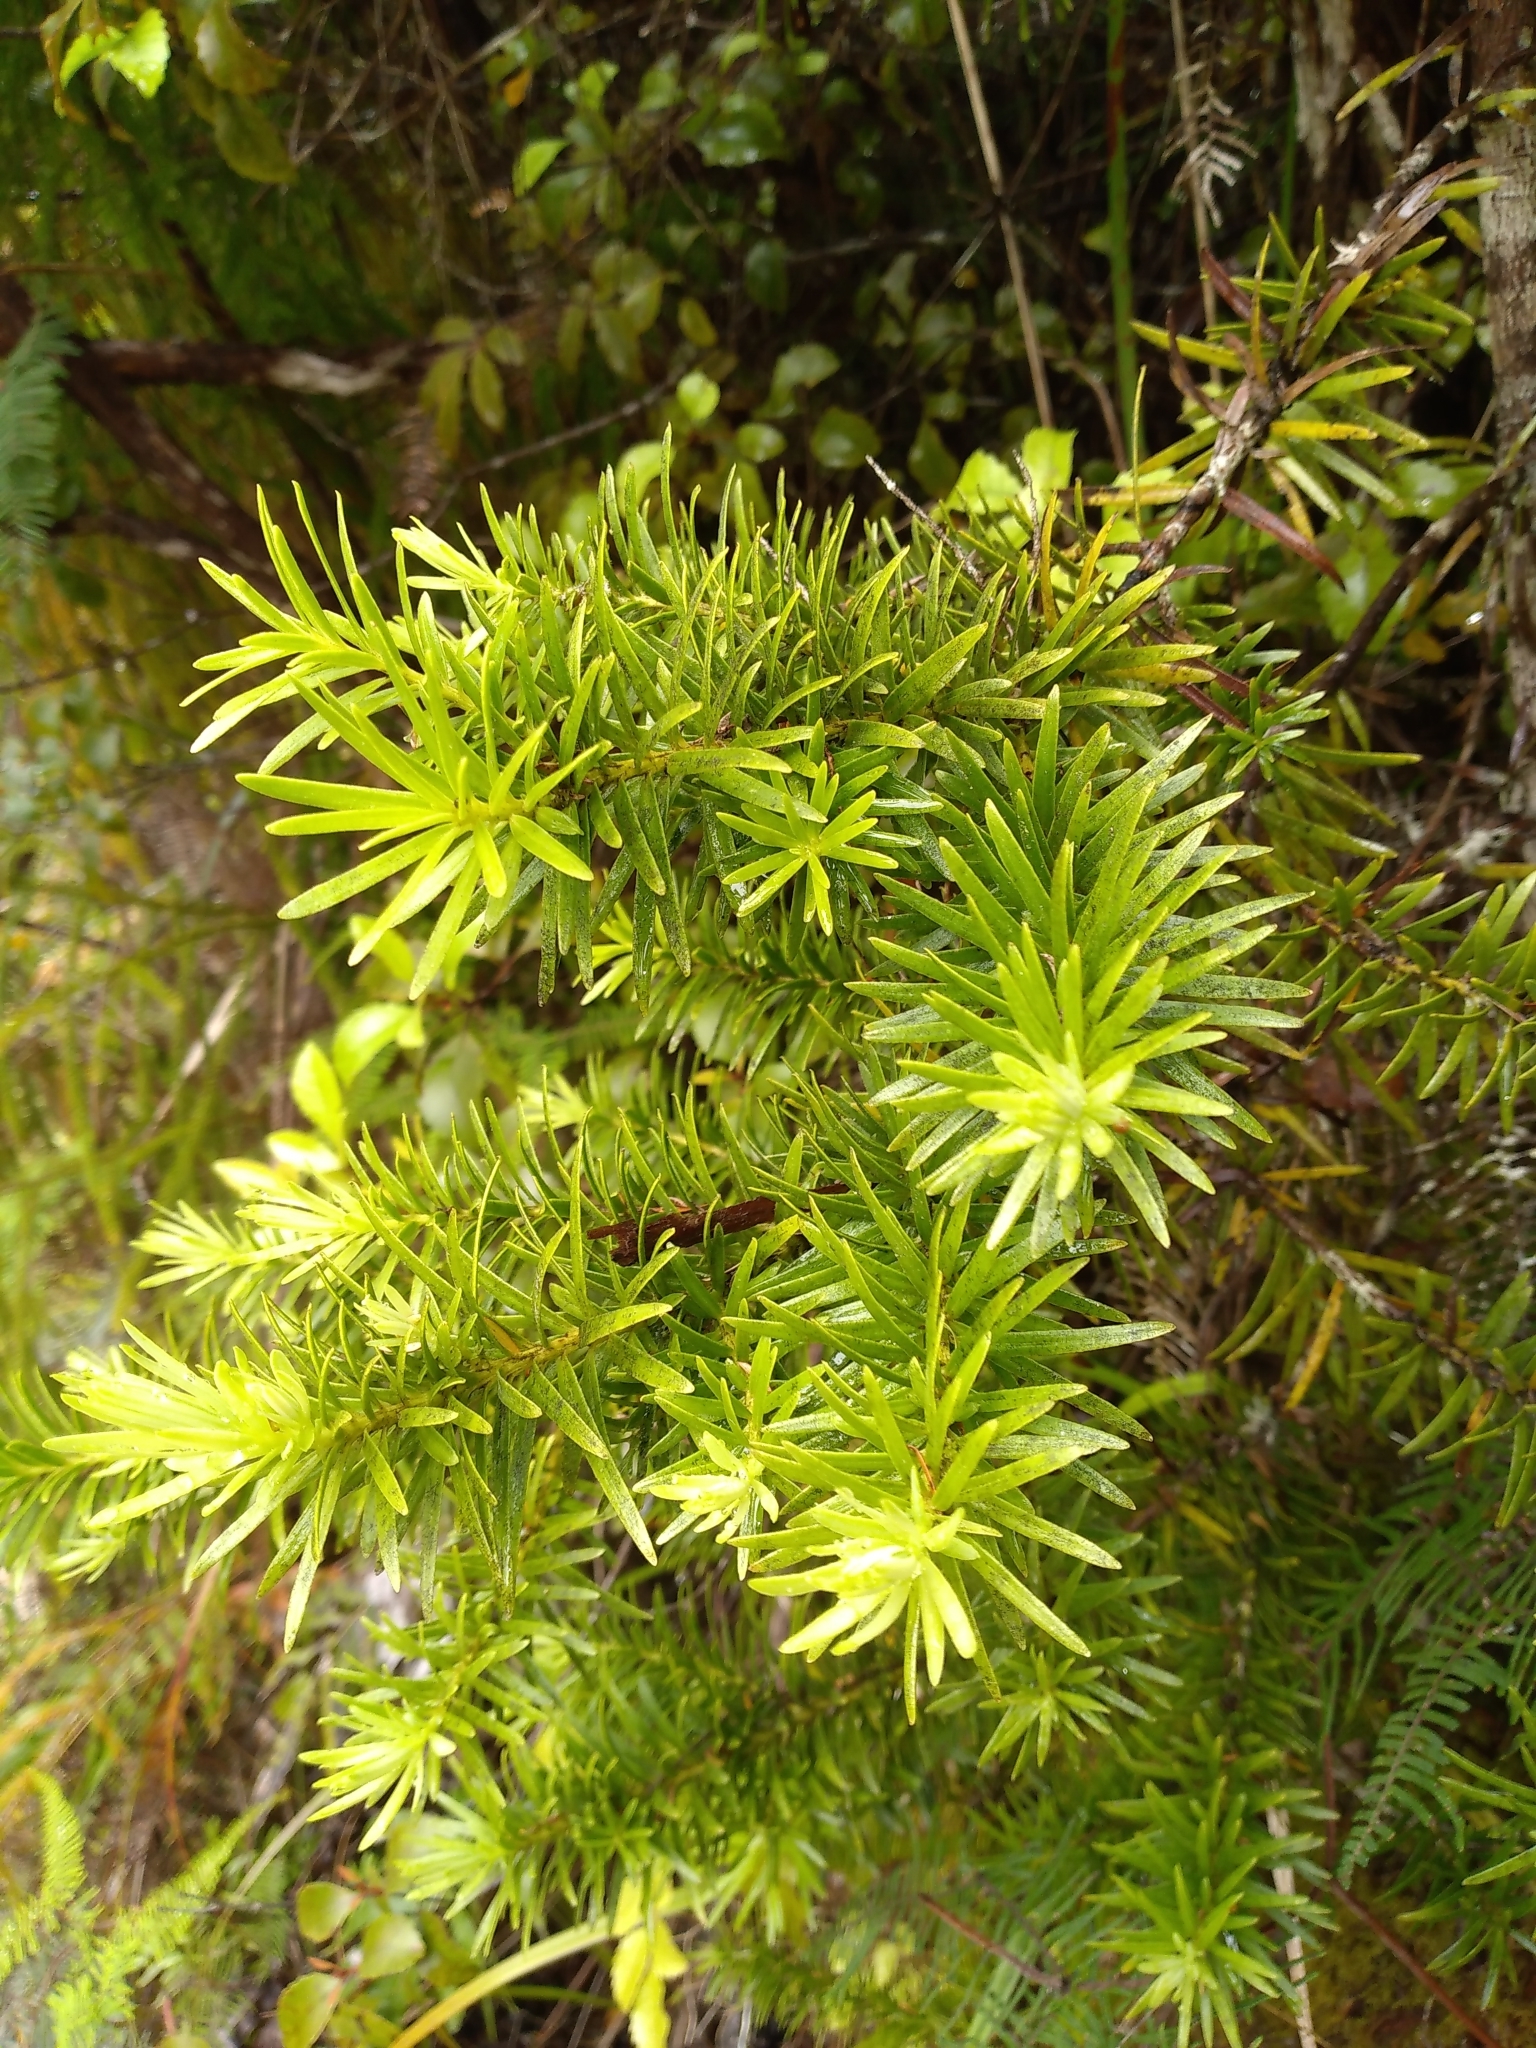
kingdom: Plantae
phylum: Tracheophyta
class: Pinopsida
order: Pinales
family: Podocarpaceae
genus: Halocarpus
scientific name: Halocarpus kirkii
